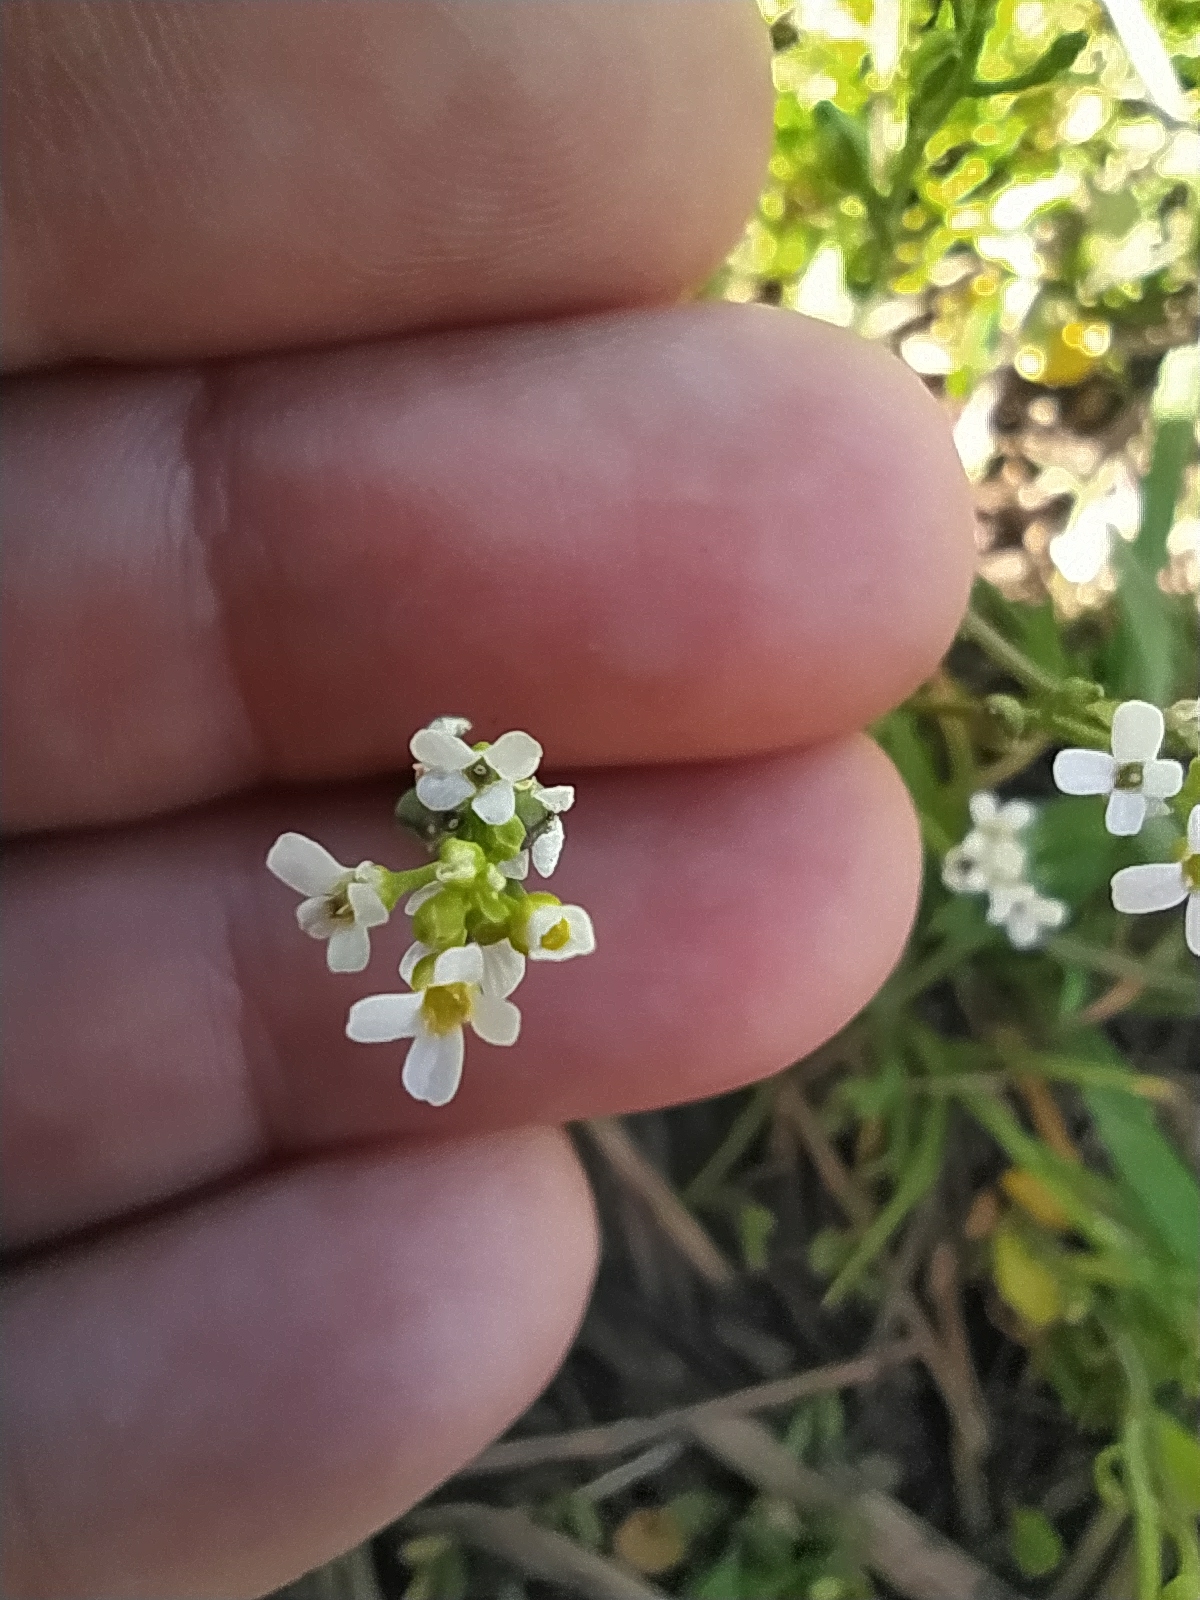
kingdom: Plantae
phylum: Tracheophyta
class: Magnoliopsida
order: Brassicales
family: Brassicaceae
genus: Calepina
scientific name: Calepina irregularis
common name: White ballmustard
